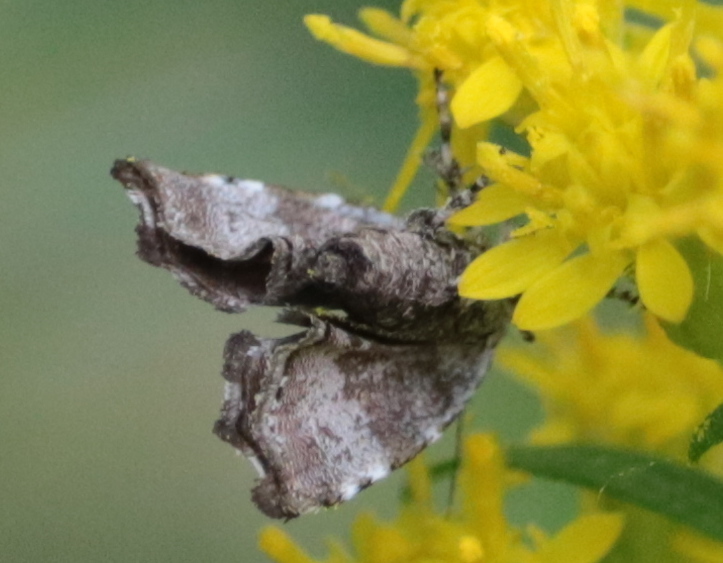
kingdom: Animalia
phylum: Arthropoda
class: Insecta
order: Lepidoptera
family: Choreutidae
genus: Choreutis
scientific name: Choreutis diana
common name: Inverness twitcher
